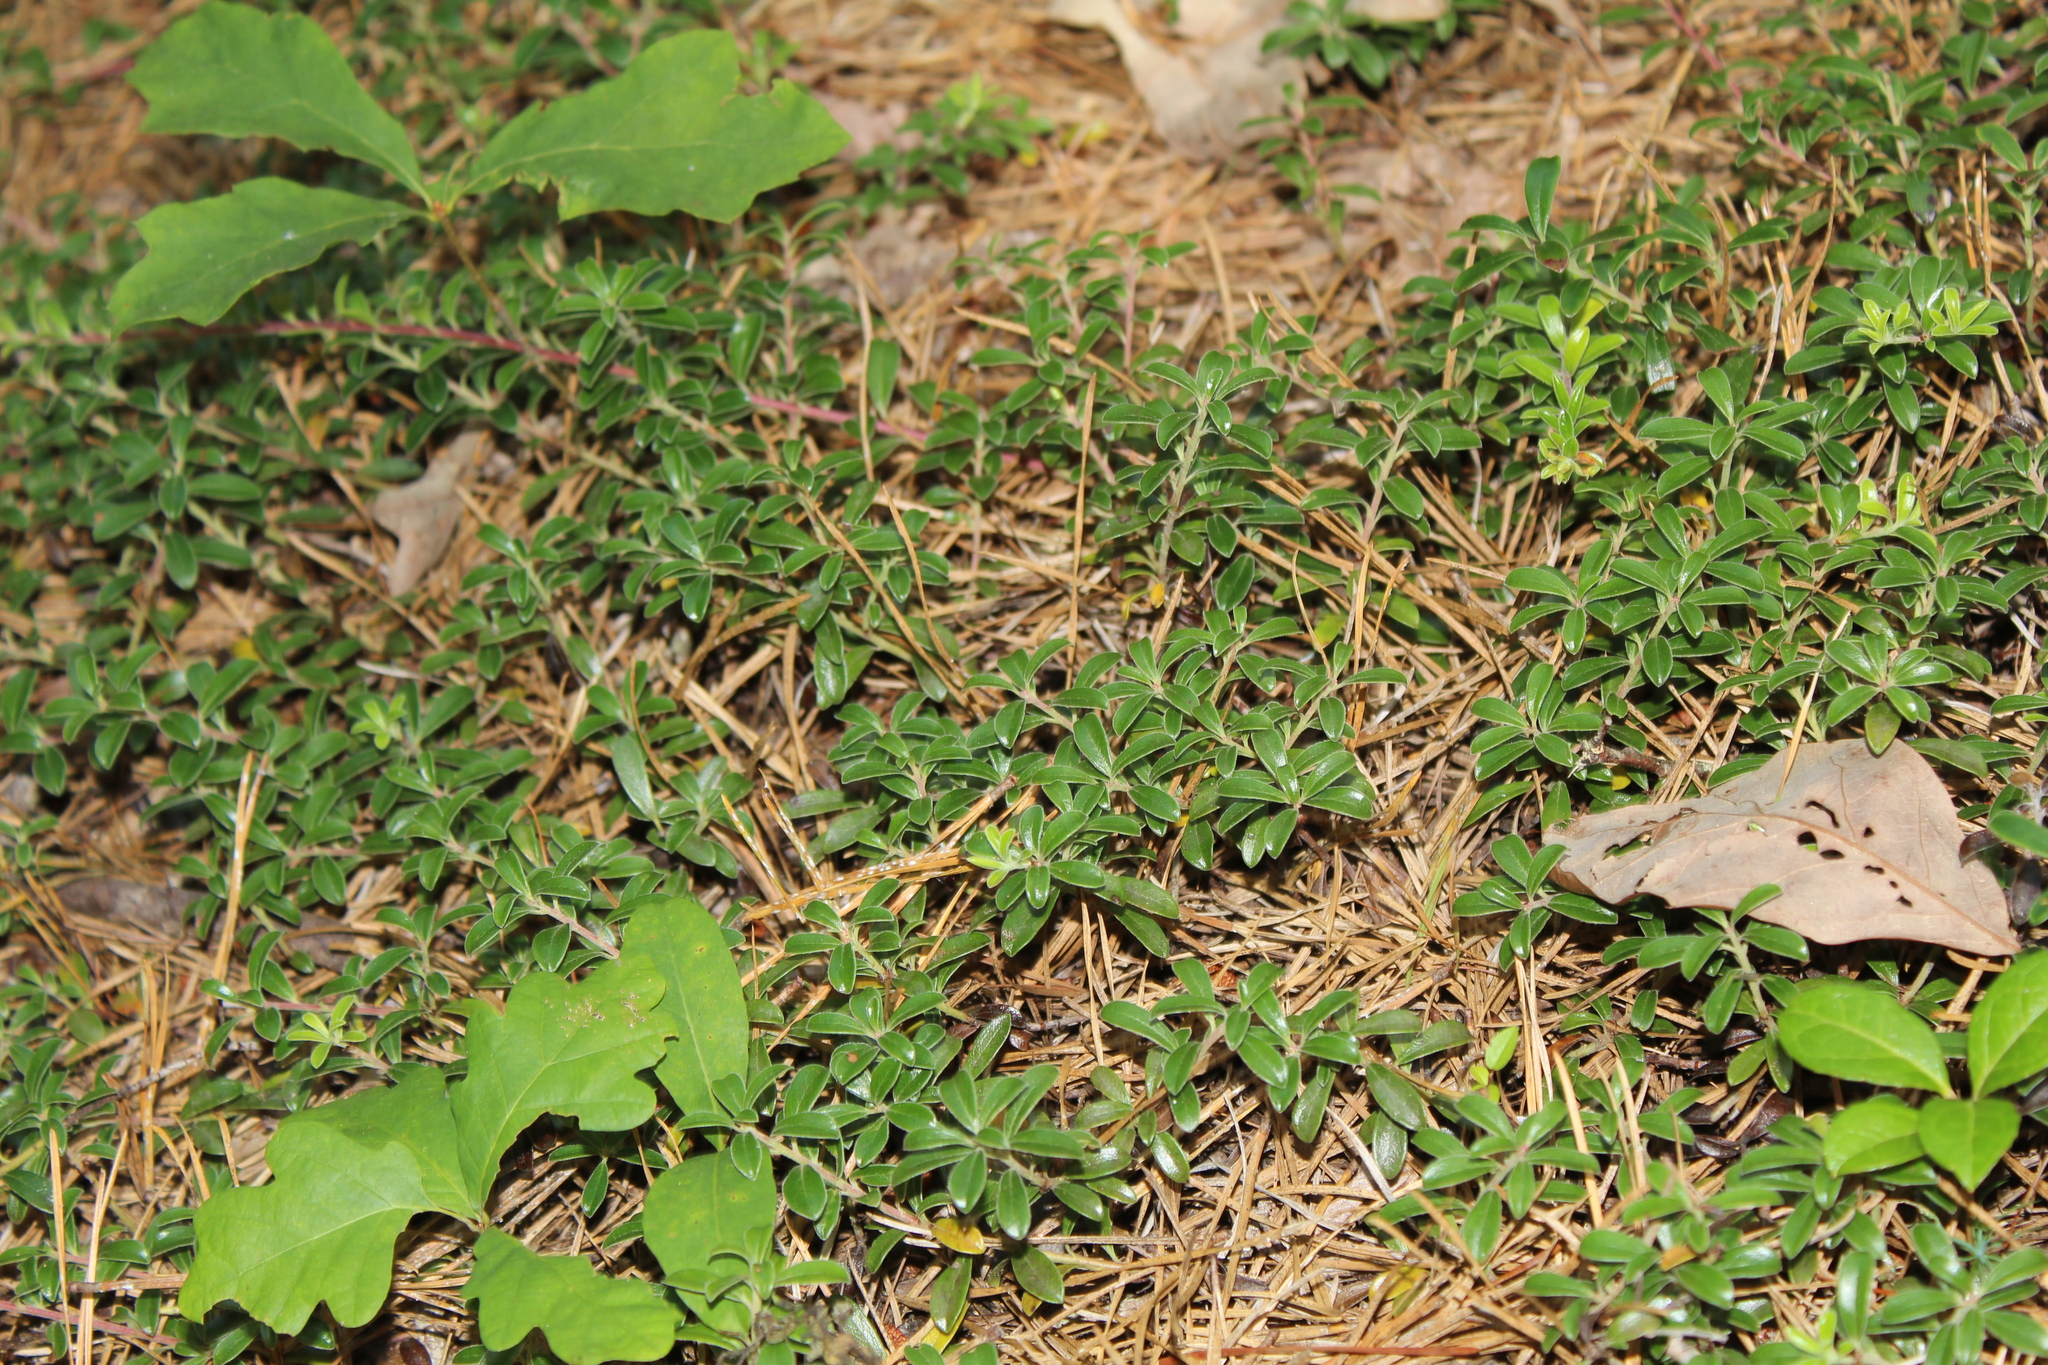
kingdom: Plantae
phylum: Tracheophyta
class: Magnoliopsida
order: Ericales
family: Ericaceae
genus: Arctostaphylos
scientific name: Arctostaphylos uva-ursi
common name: Bearberry
